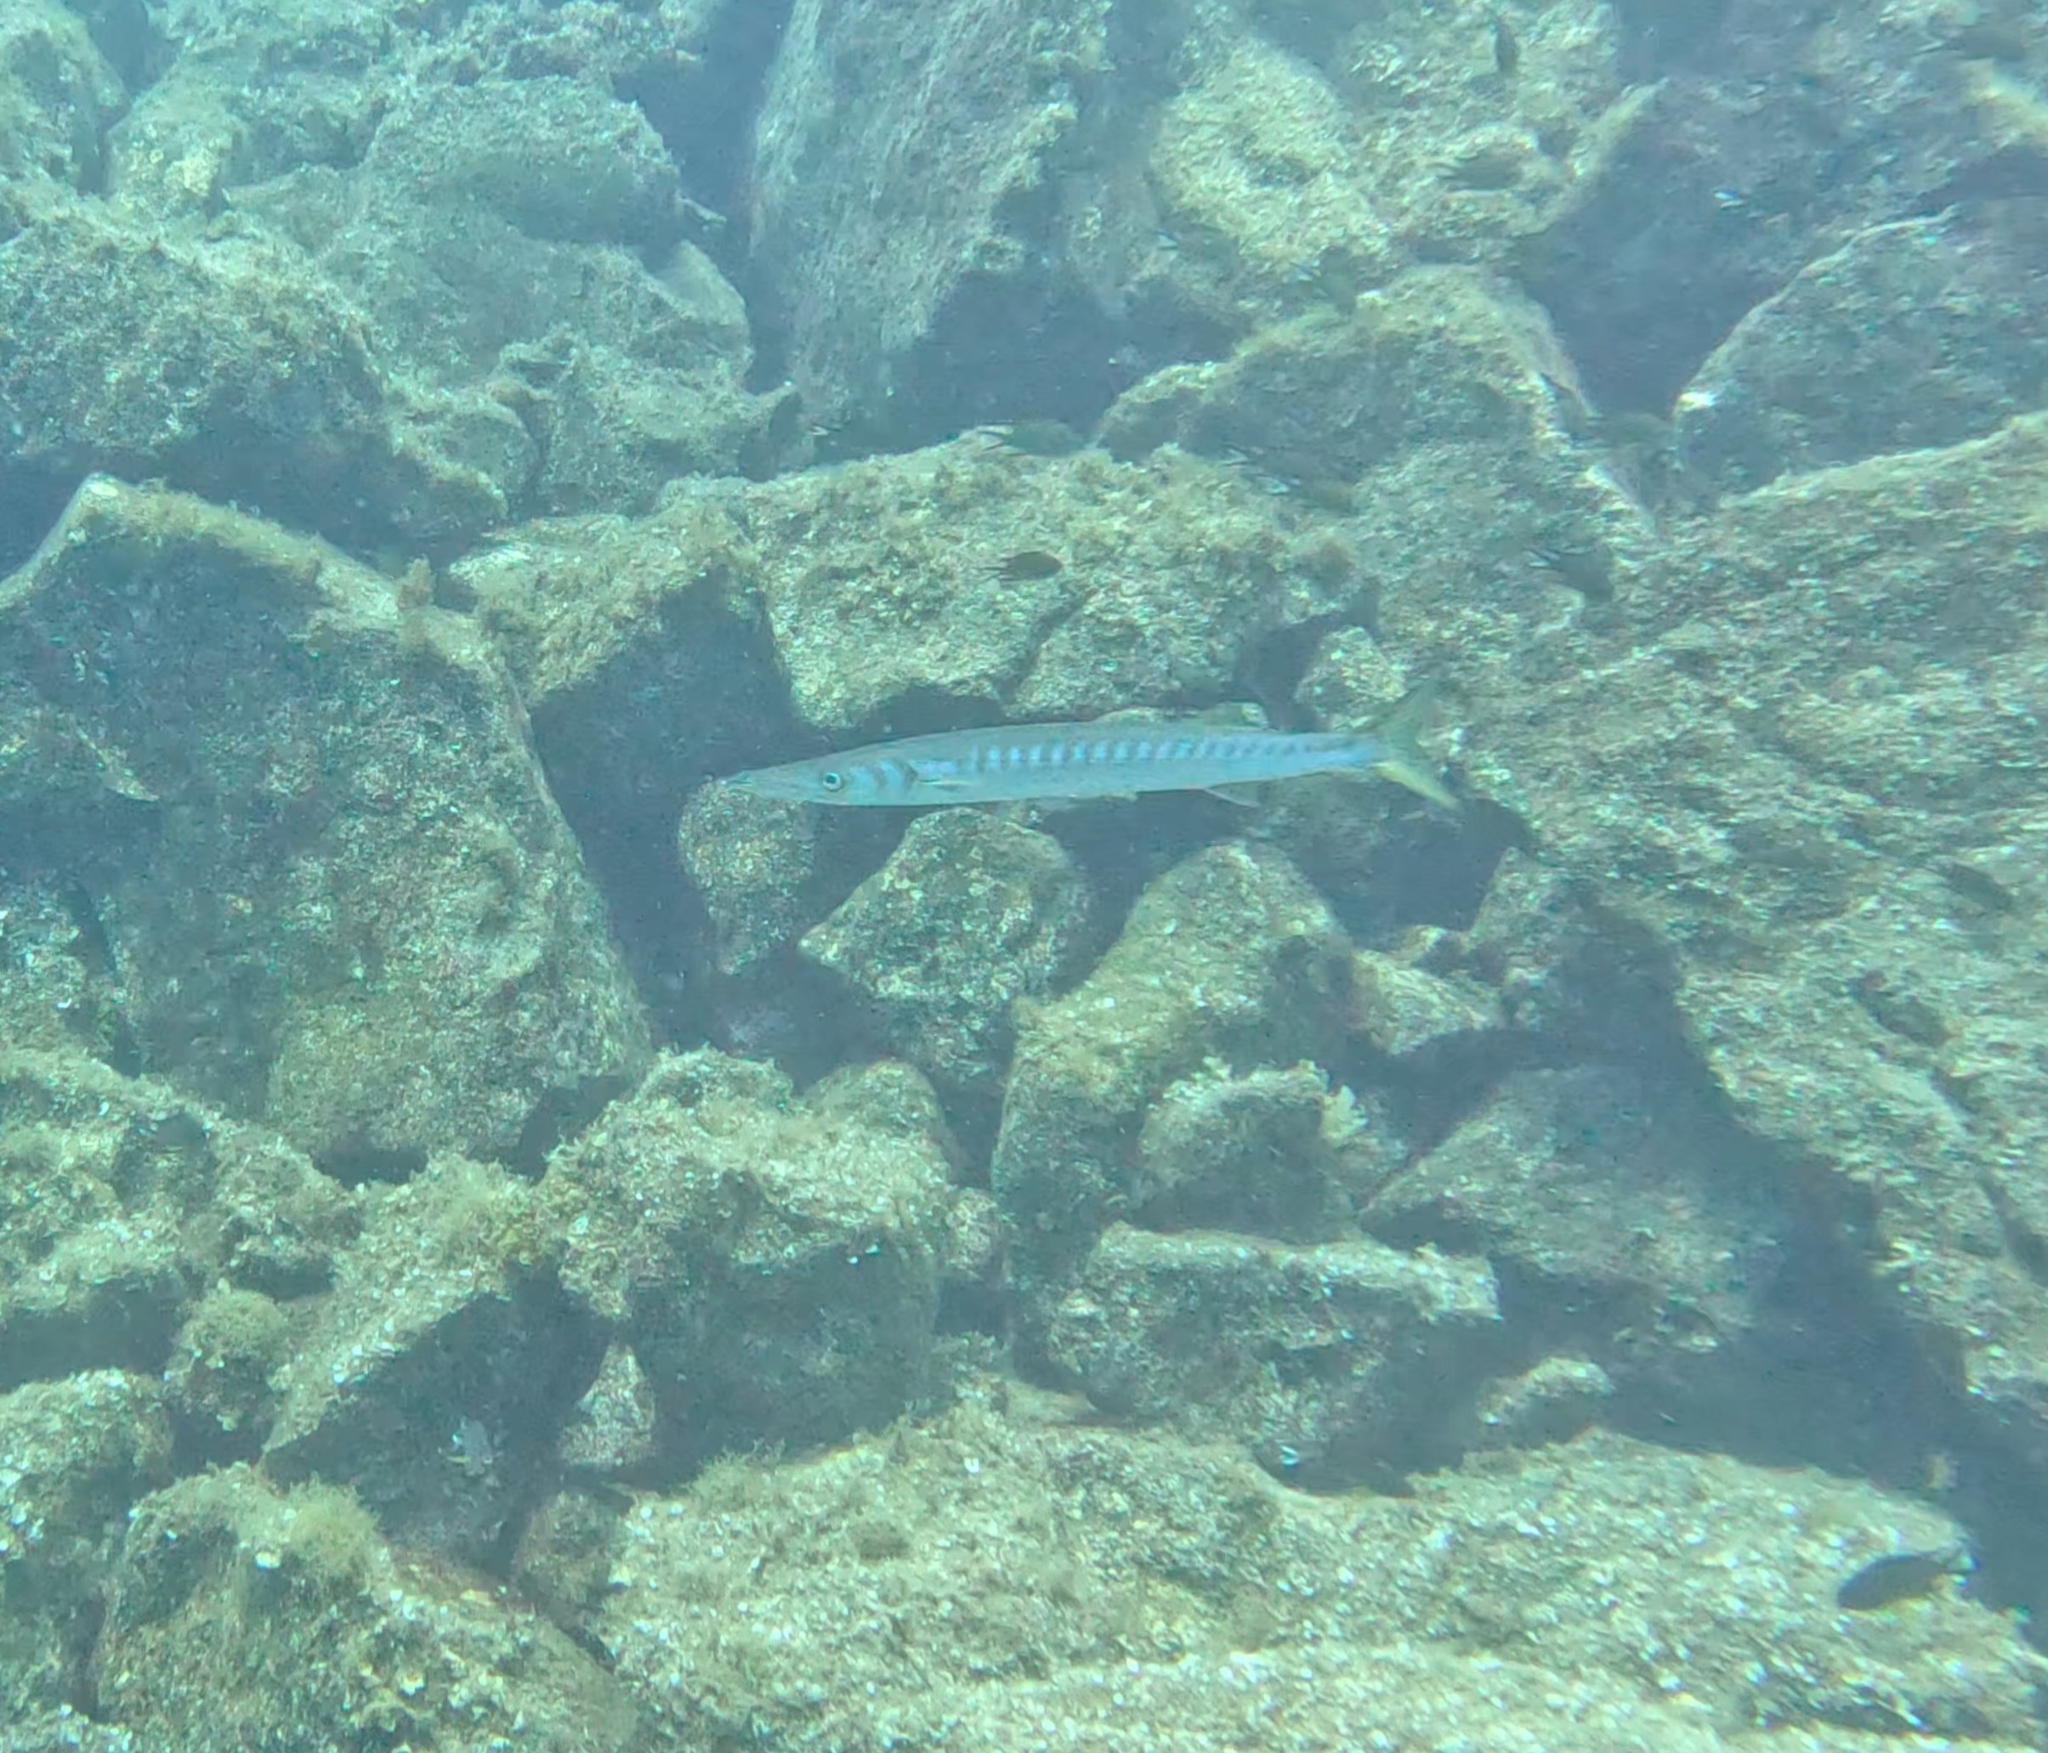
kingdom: Animalia
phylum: Chordata
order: Perciformes
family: Sphyraenidae
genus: Sphyraena
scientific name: Sphyraena viridensis
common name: Yellowmouth barracuda
